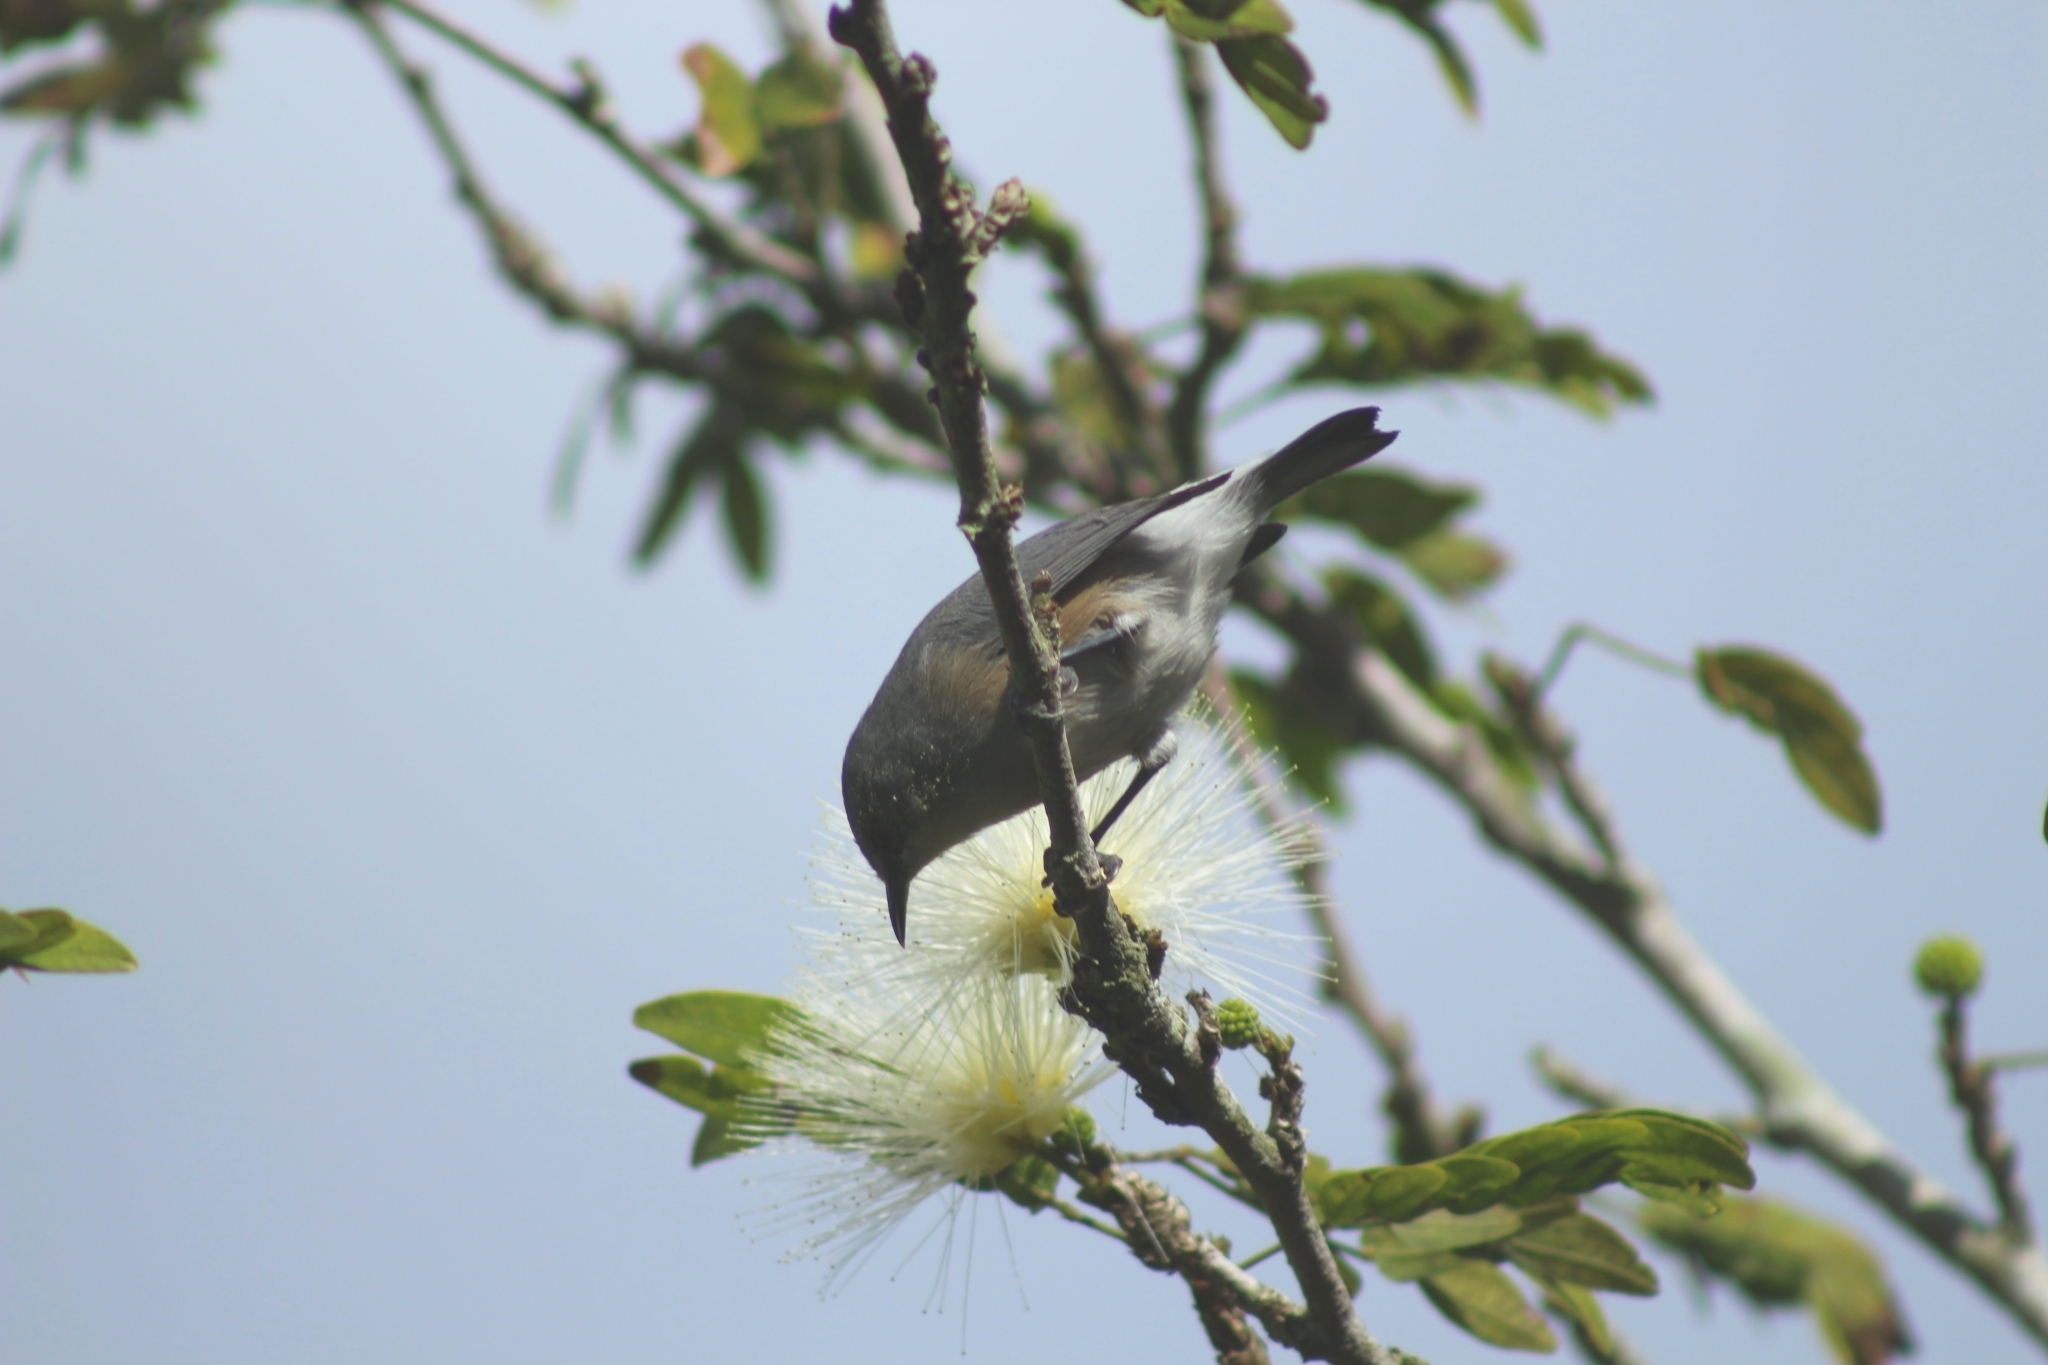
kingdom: Animalia
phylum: Chordata
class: Aves
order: Passeriformes
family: Zosteropidae
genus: Zosterops
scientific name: Zosterops mauritianus
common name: Mauritius gray white-eye
